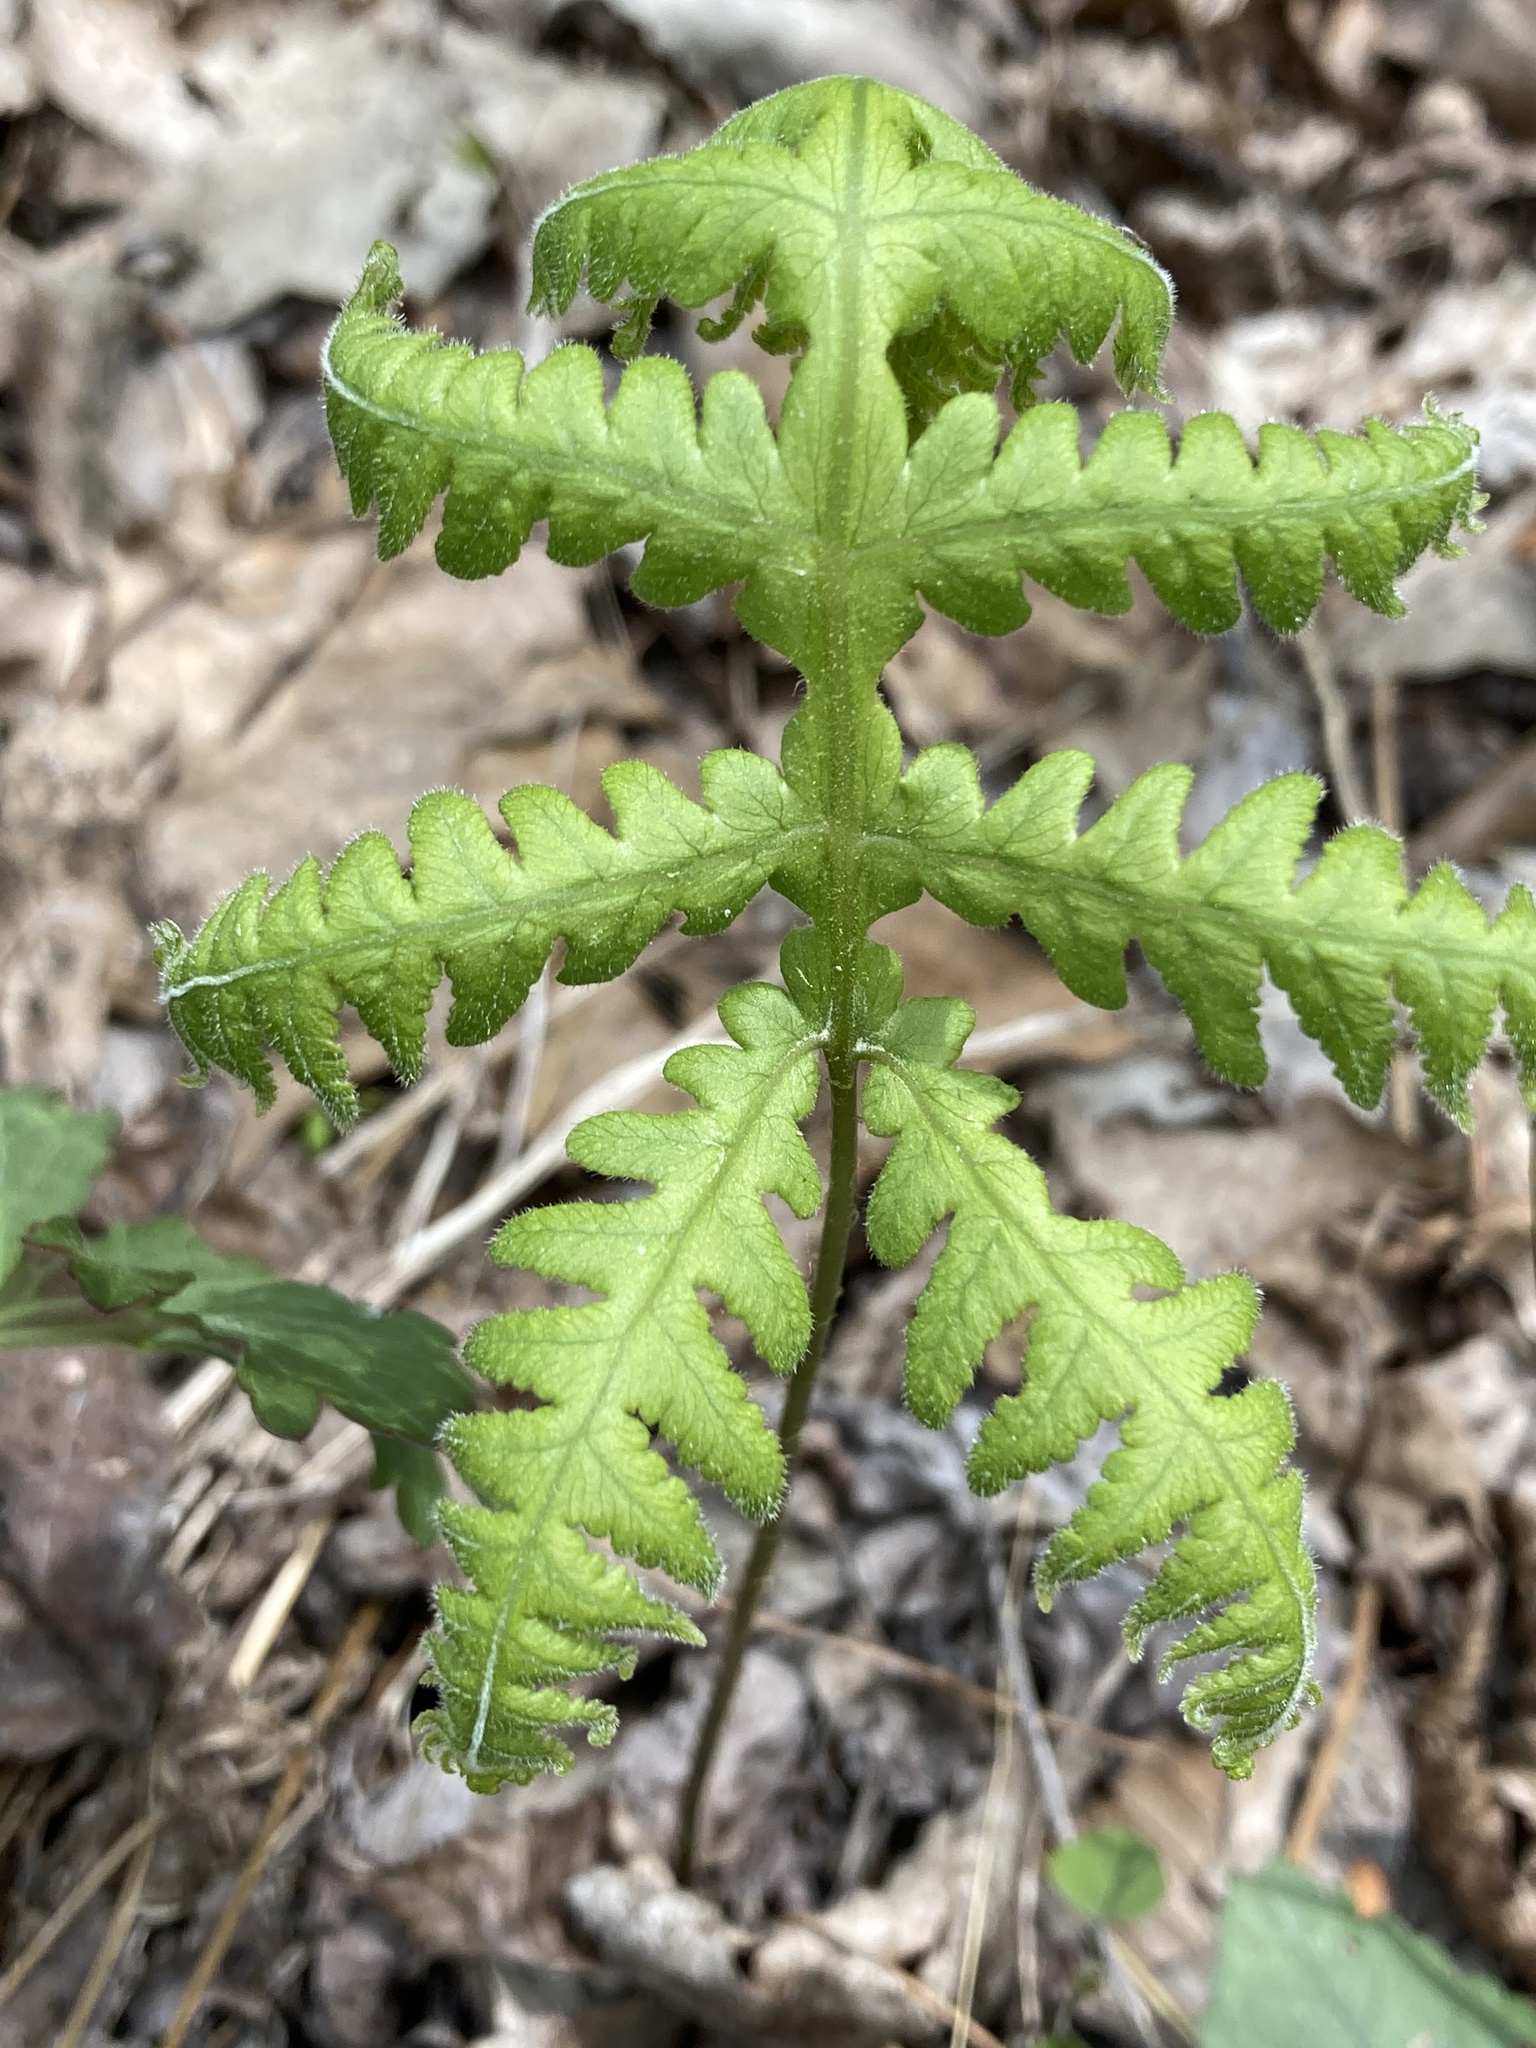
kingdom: Plantae
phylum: Tracheophyta
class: Polypodiopsida
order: Polypodiales
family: Thelypteridaceae
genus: Phegopteris
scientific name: Phegopteris hexagonoptera
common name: Broad beech fern
